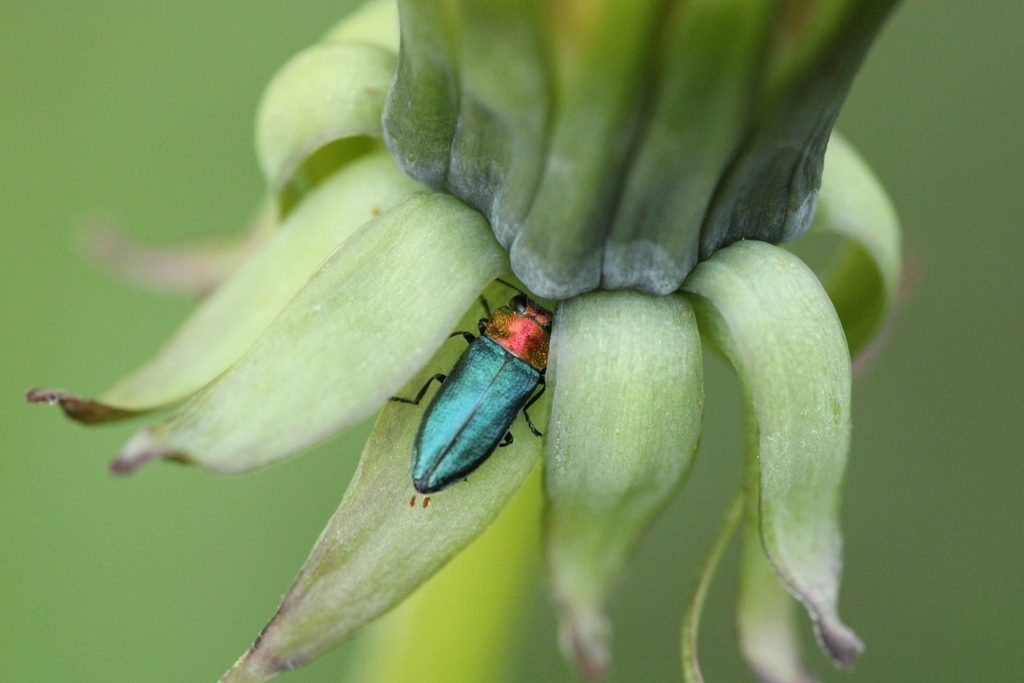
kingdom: Animalia
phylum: Arthropoda
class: Insecta
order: Coleoptera
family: Buprestidae
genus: Anthaxia
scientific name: Anthaxia nitidula
